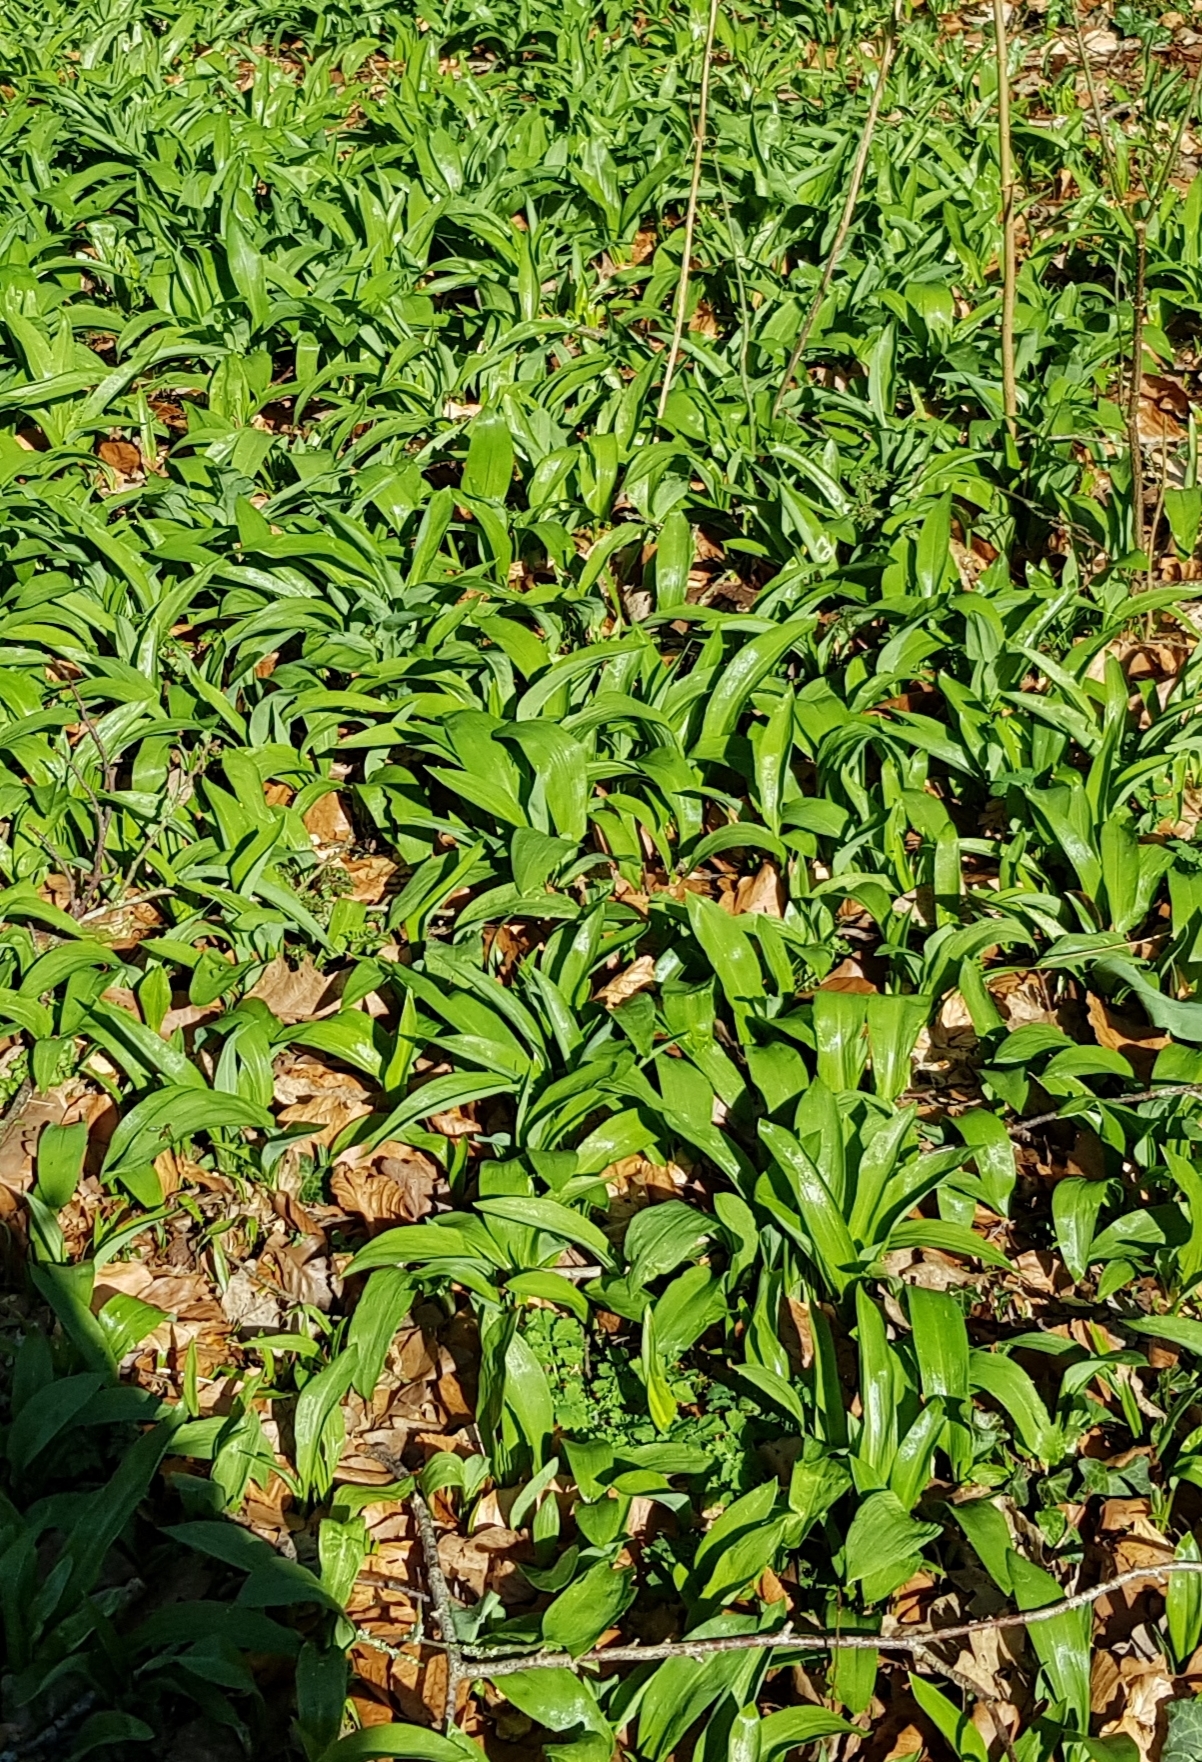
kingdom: Plantae
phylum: Tracheophyta
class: Liliopsida
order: Asparagales
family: Amaryllidaceae
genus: Allium
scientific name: Allium ursinum
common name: Ramsons
